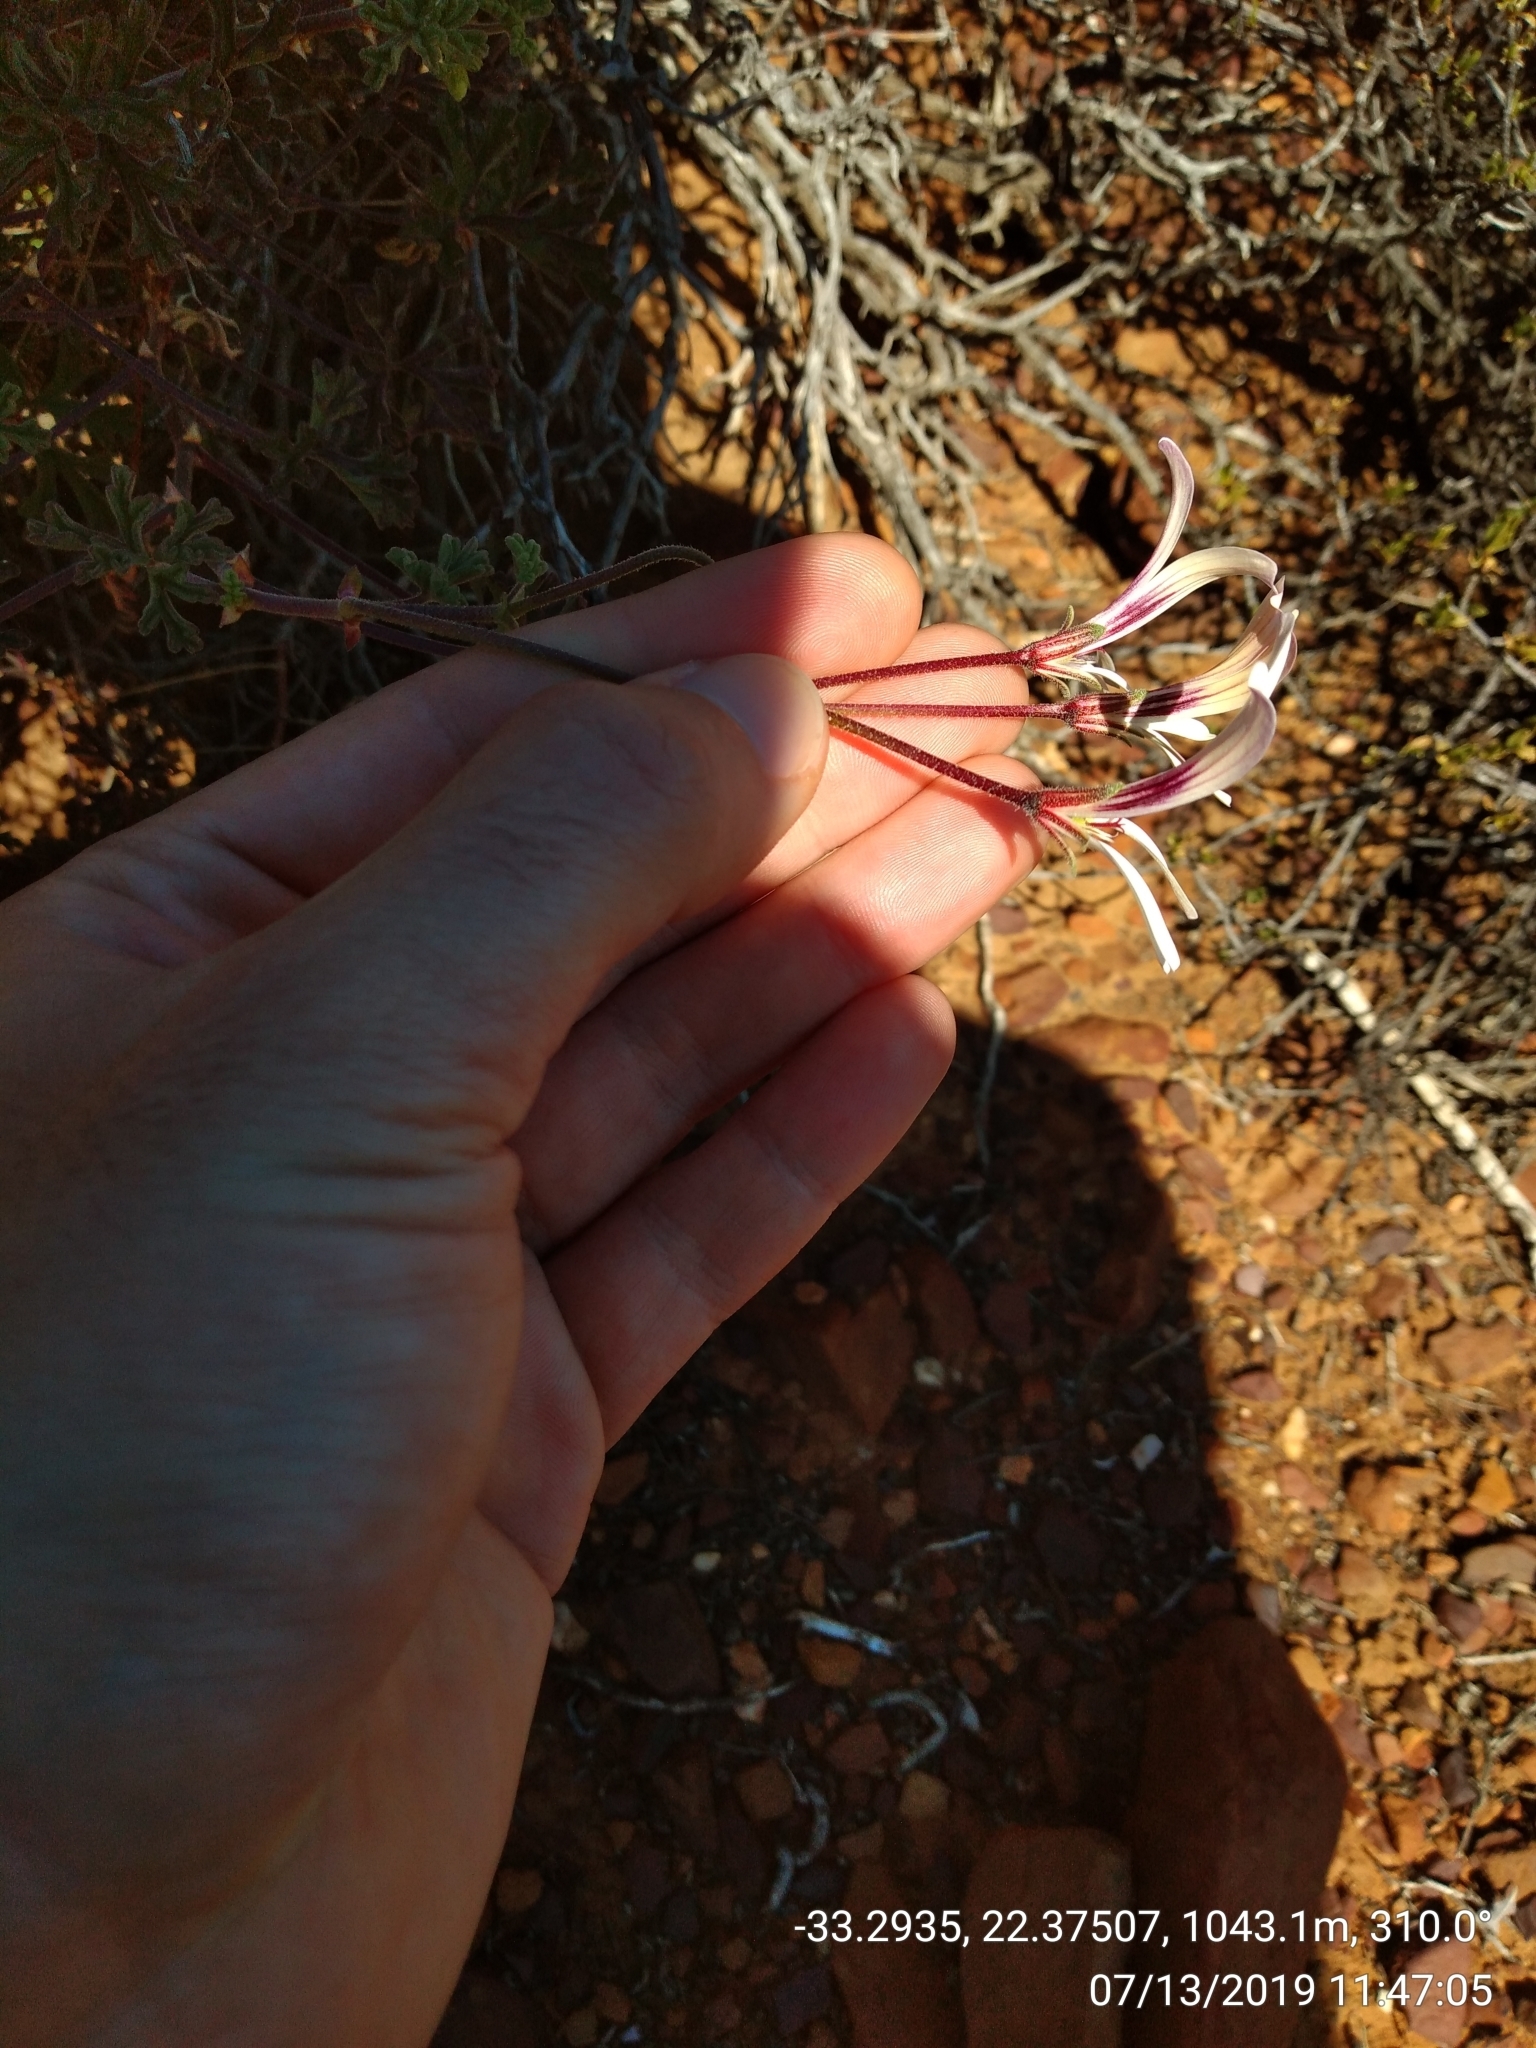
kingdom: Plantae
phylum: Tracheophyta
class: Magnoliopsida
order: Geraniales
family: Geraniaceae
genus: Pelargonium
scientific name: Pelargonium trifidum
